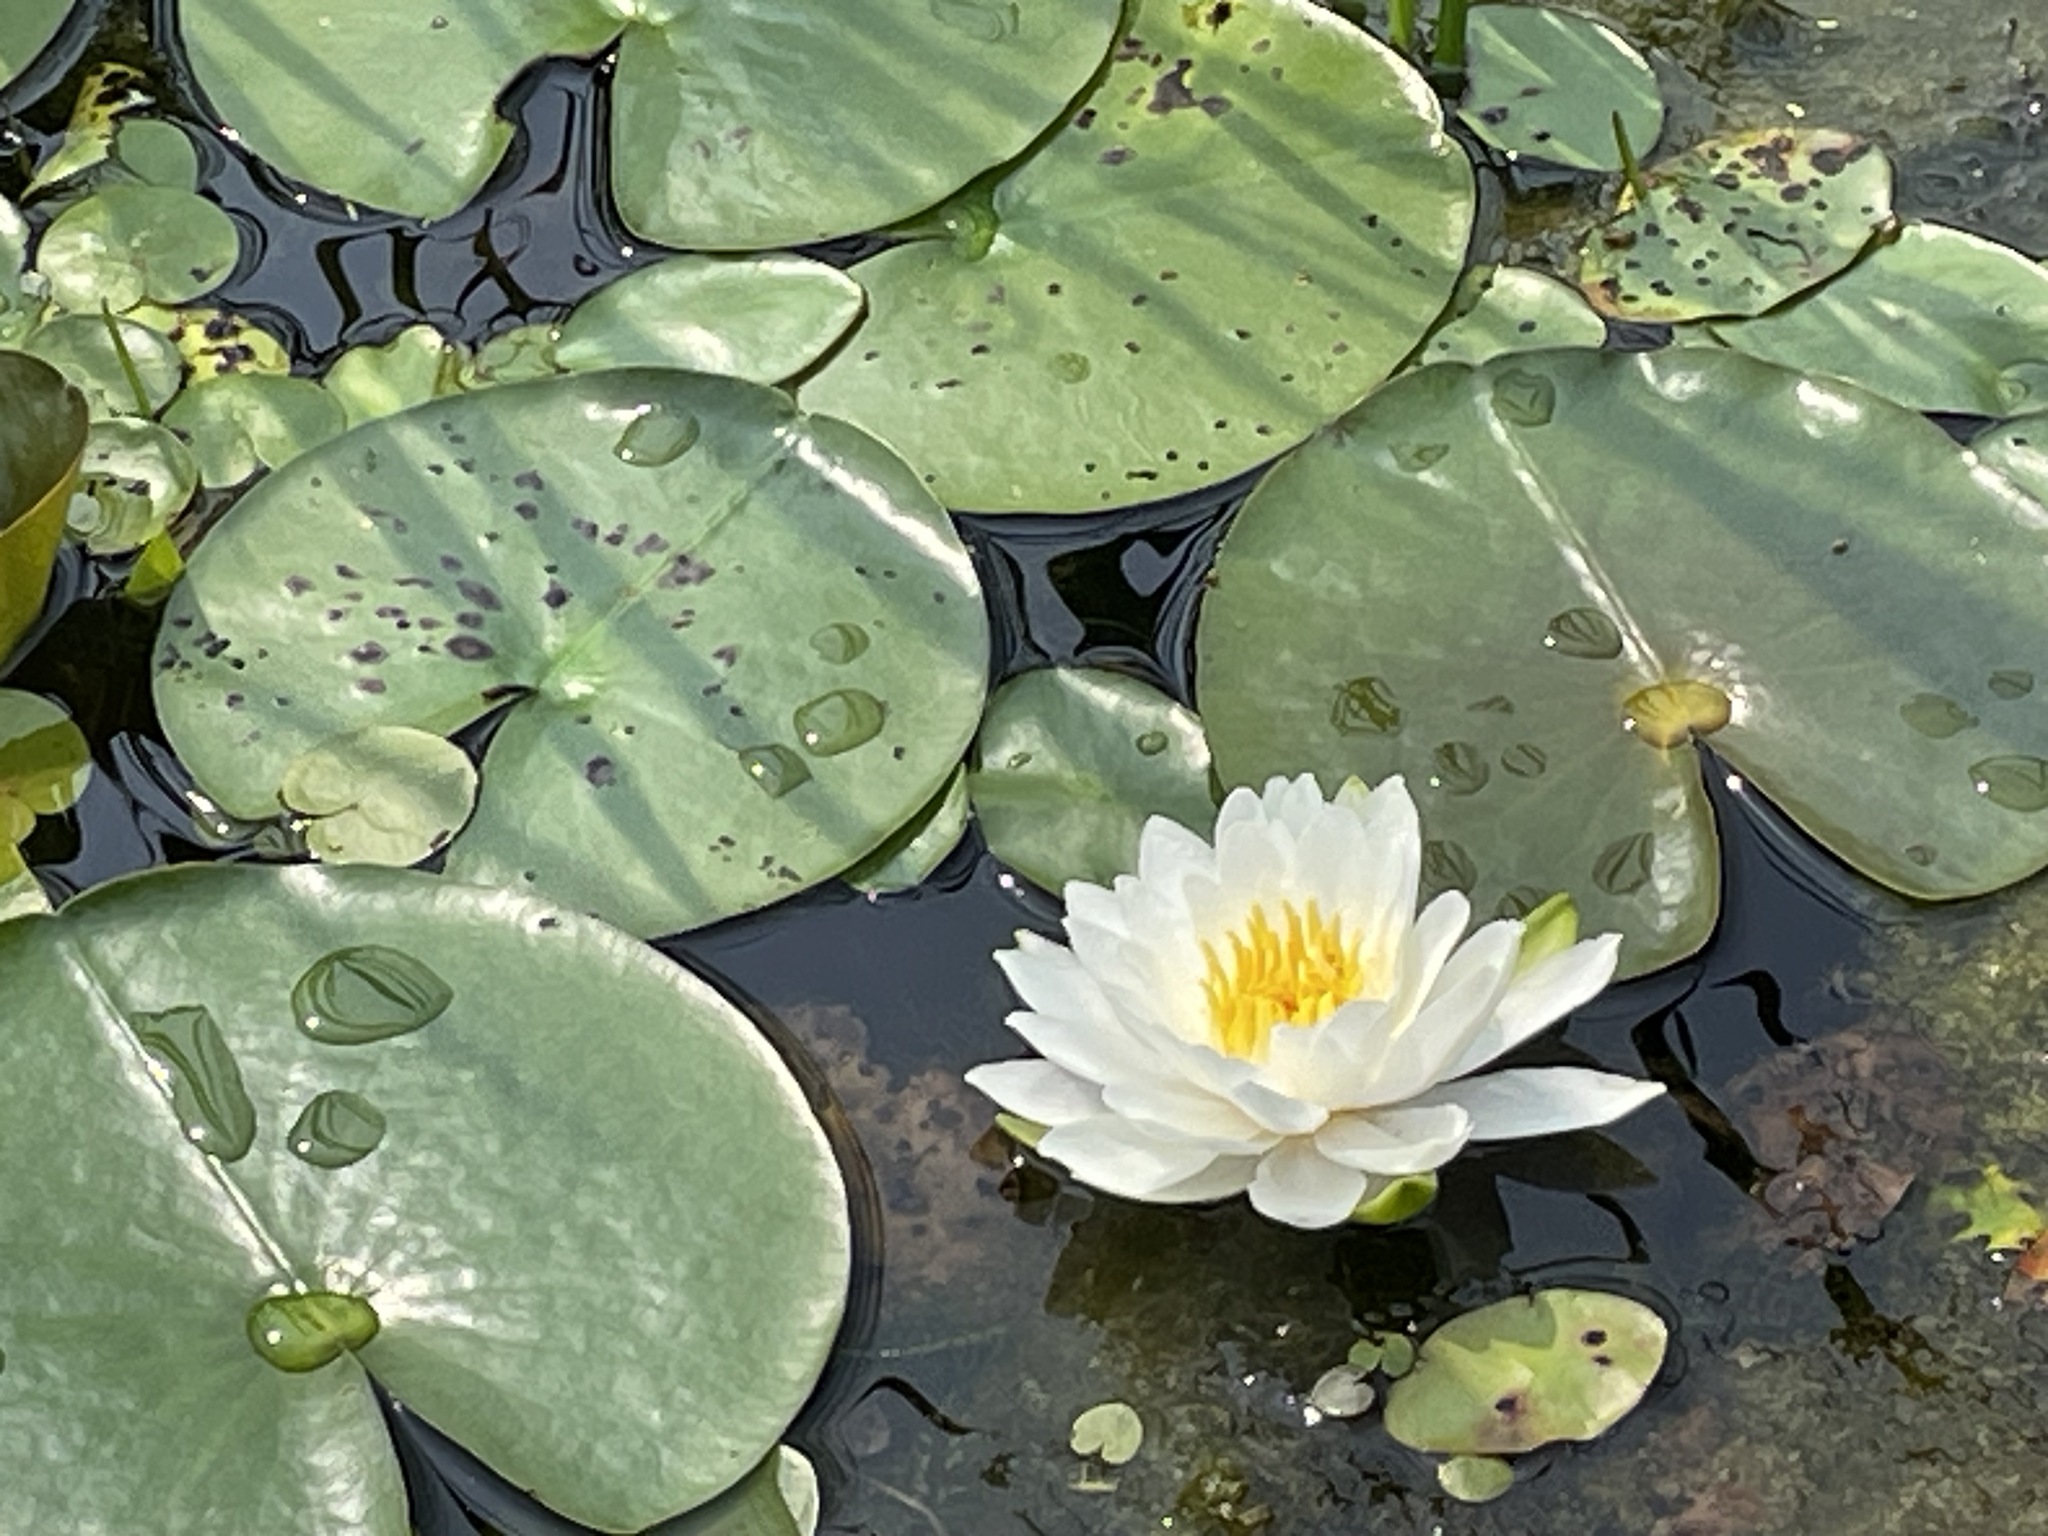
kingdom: Plantae
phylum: Tracheophyta
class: Magnoliopsida
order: Nymphaeales
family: Nymphaeaceae
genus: Nymphaea
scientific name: Nymphaea odorata
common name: Fragrant water-lily
